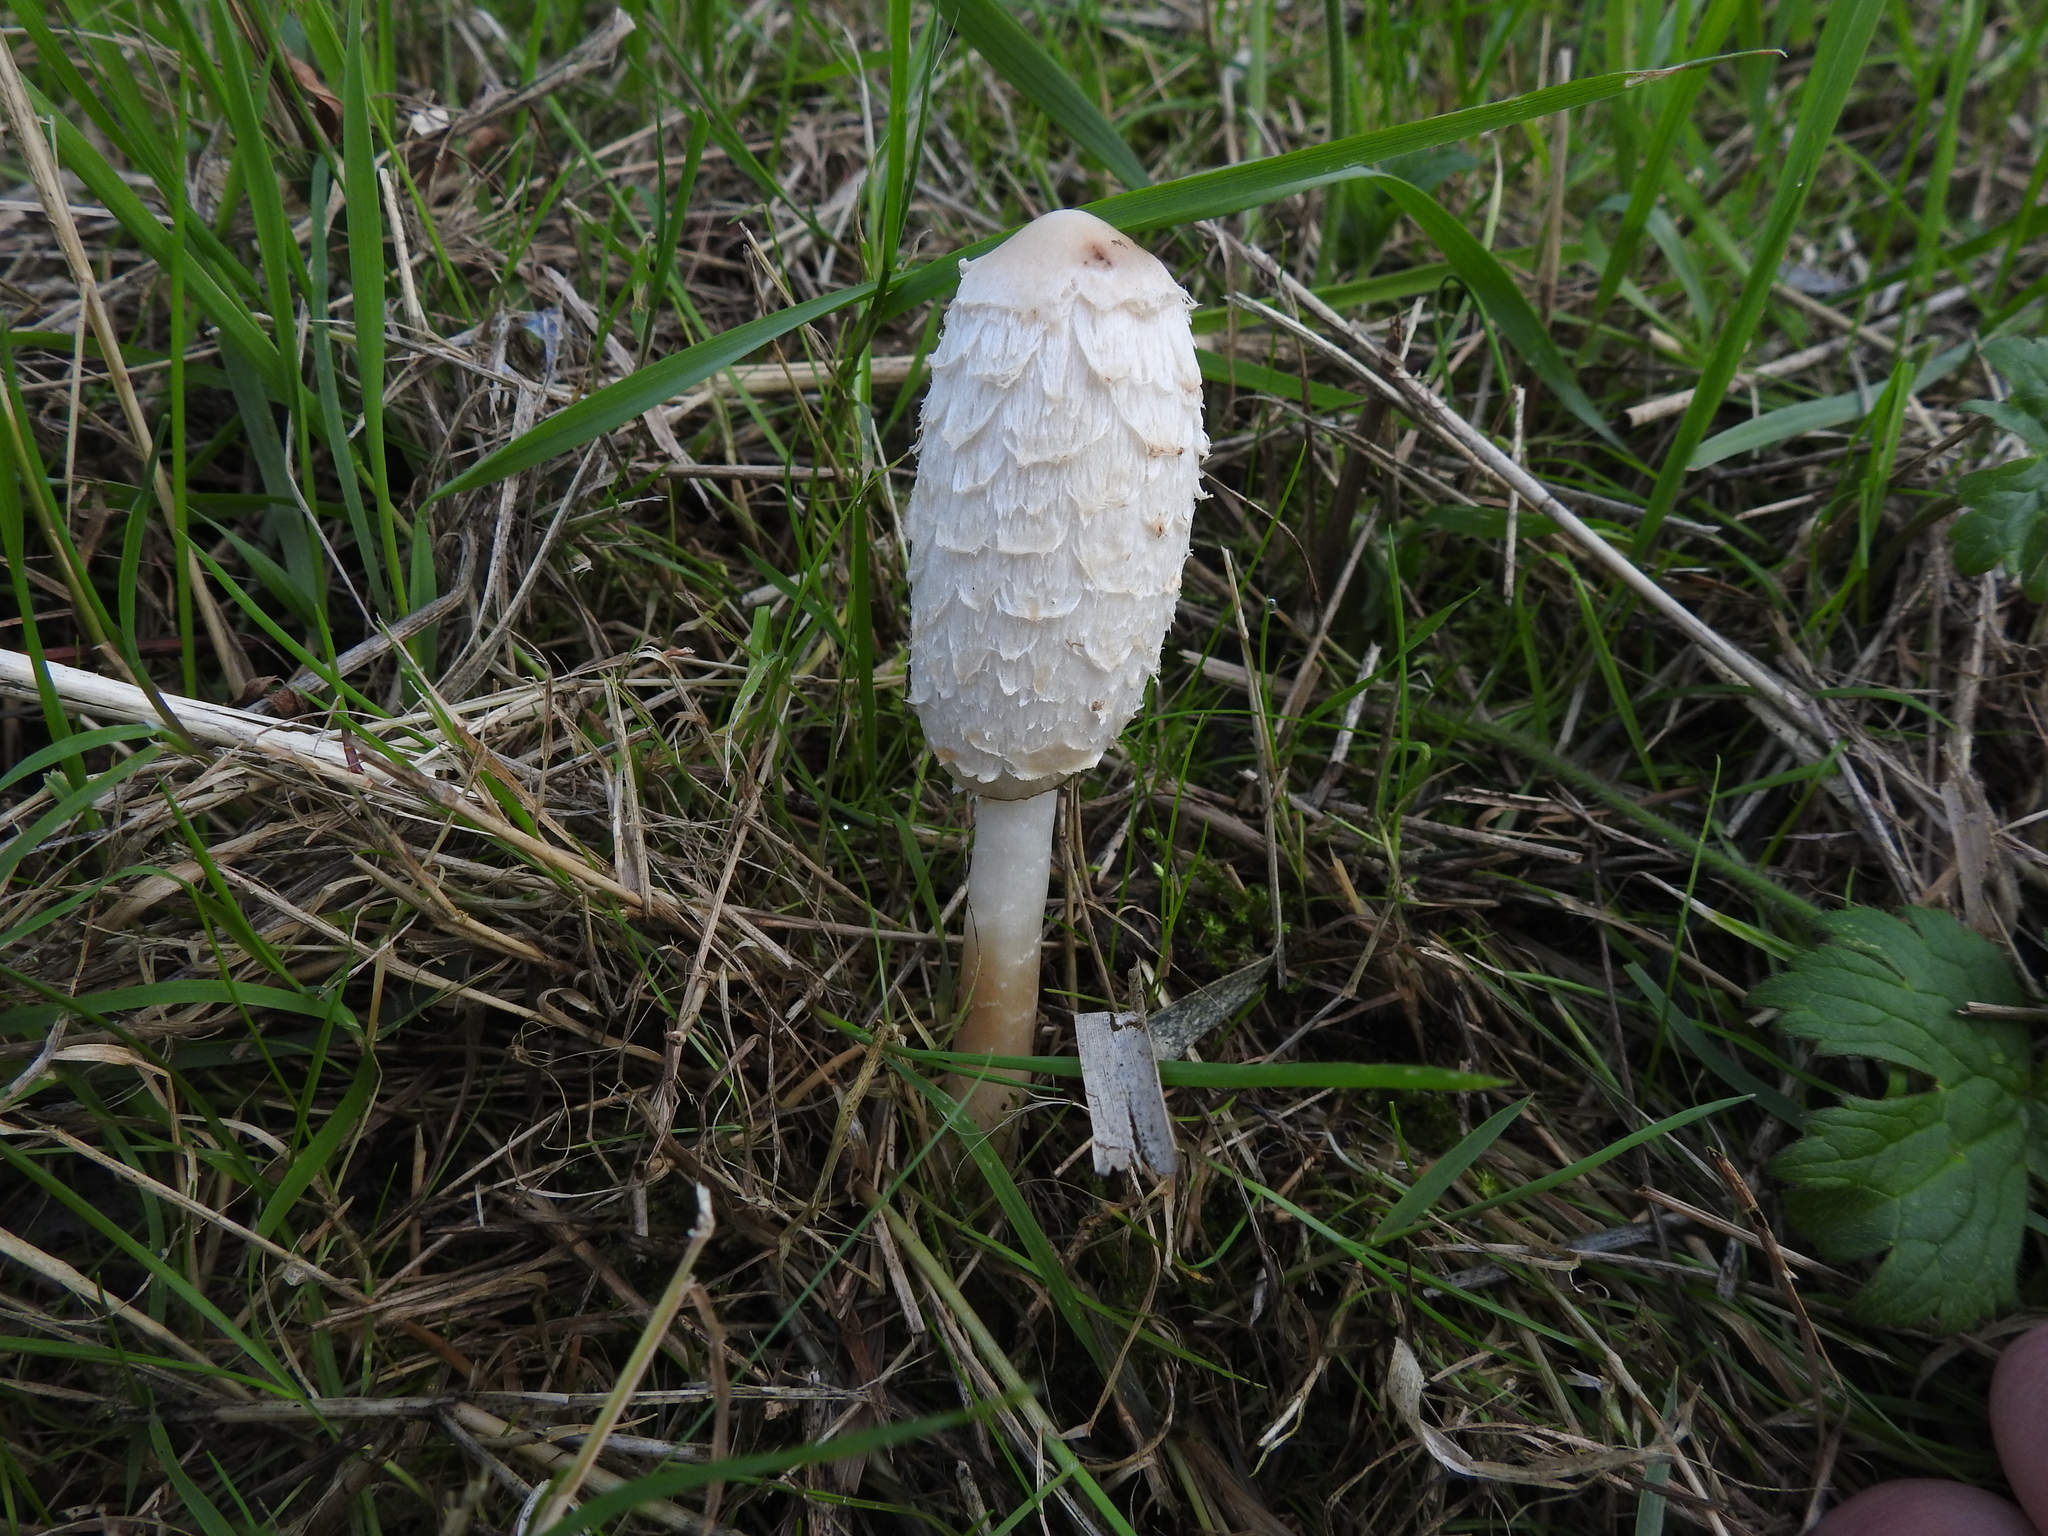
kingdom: Fungi
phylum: Basidiomycota
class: Agaricomycetes
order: Agaricales
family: Agaricaceae
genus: Coprinus
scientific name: Coprinus comatus
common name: Lawyer's wig
